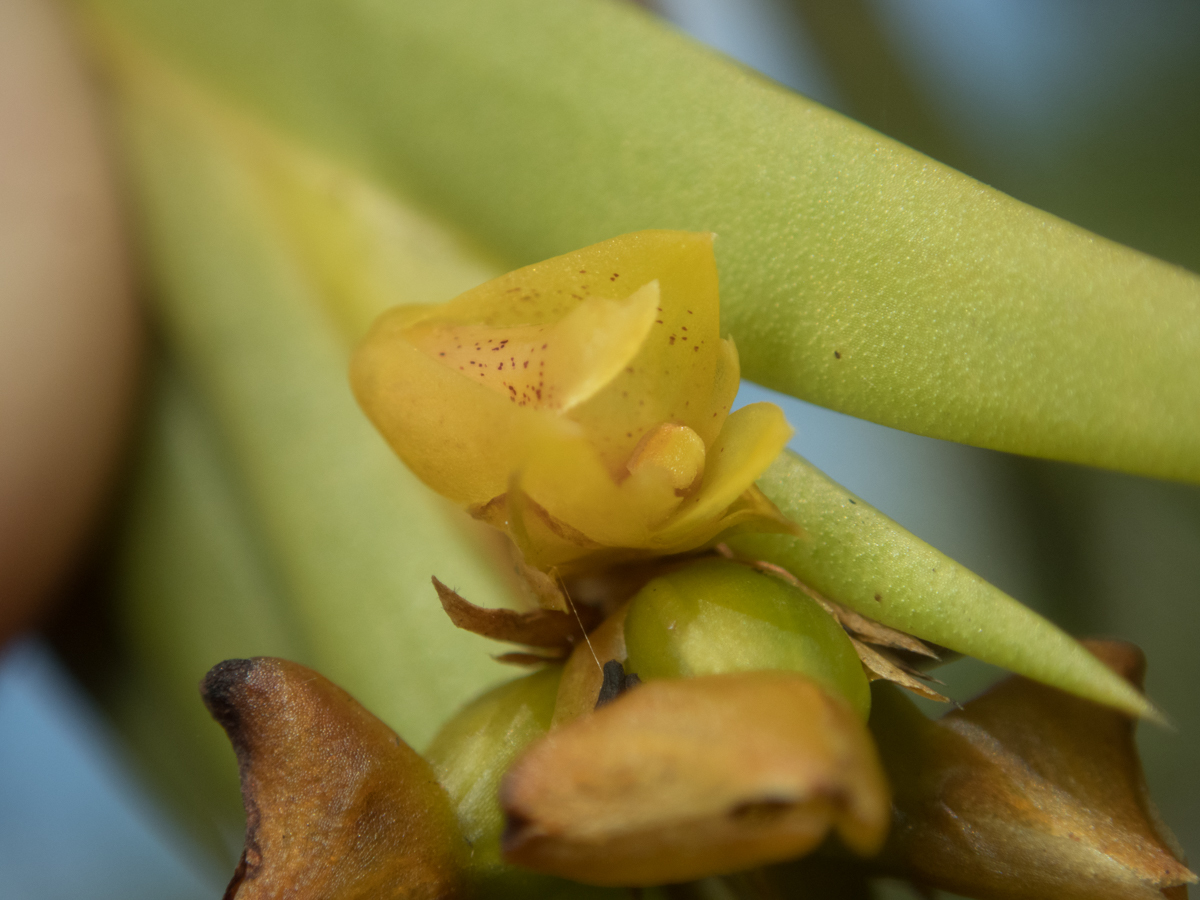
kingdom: Plantae
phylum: Tracheophyta
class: Liliopsida
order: Asparagales
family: Orchidaceae
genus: Oxystophyllum
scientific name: Oxystophyllum carnosum
